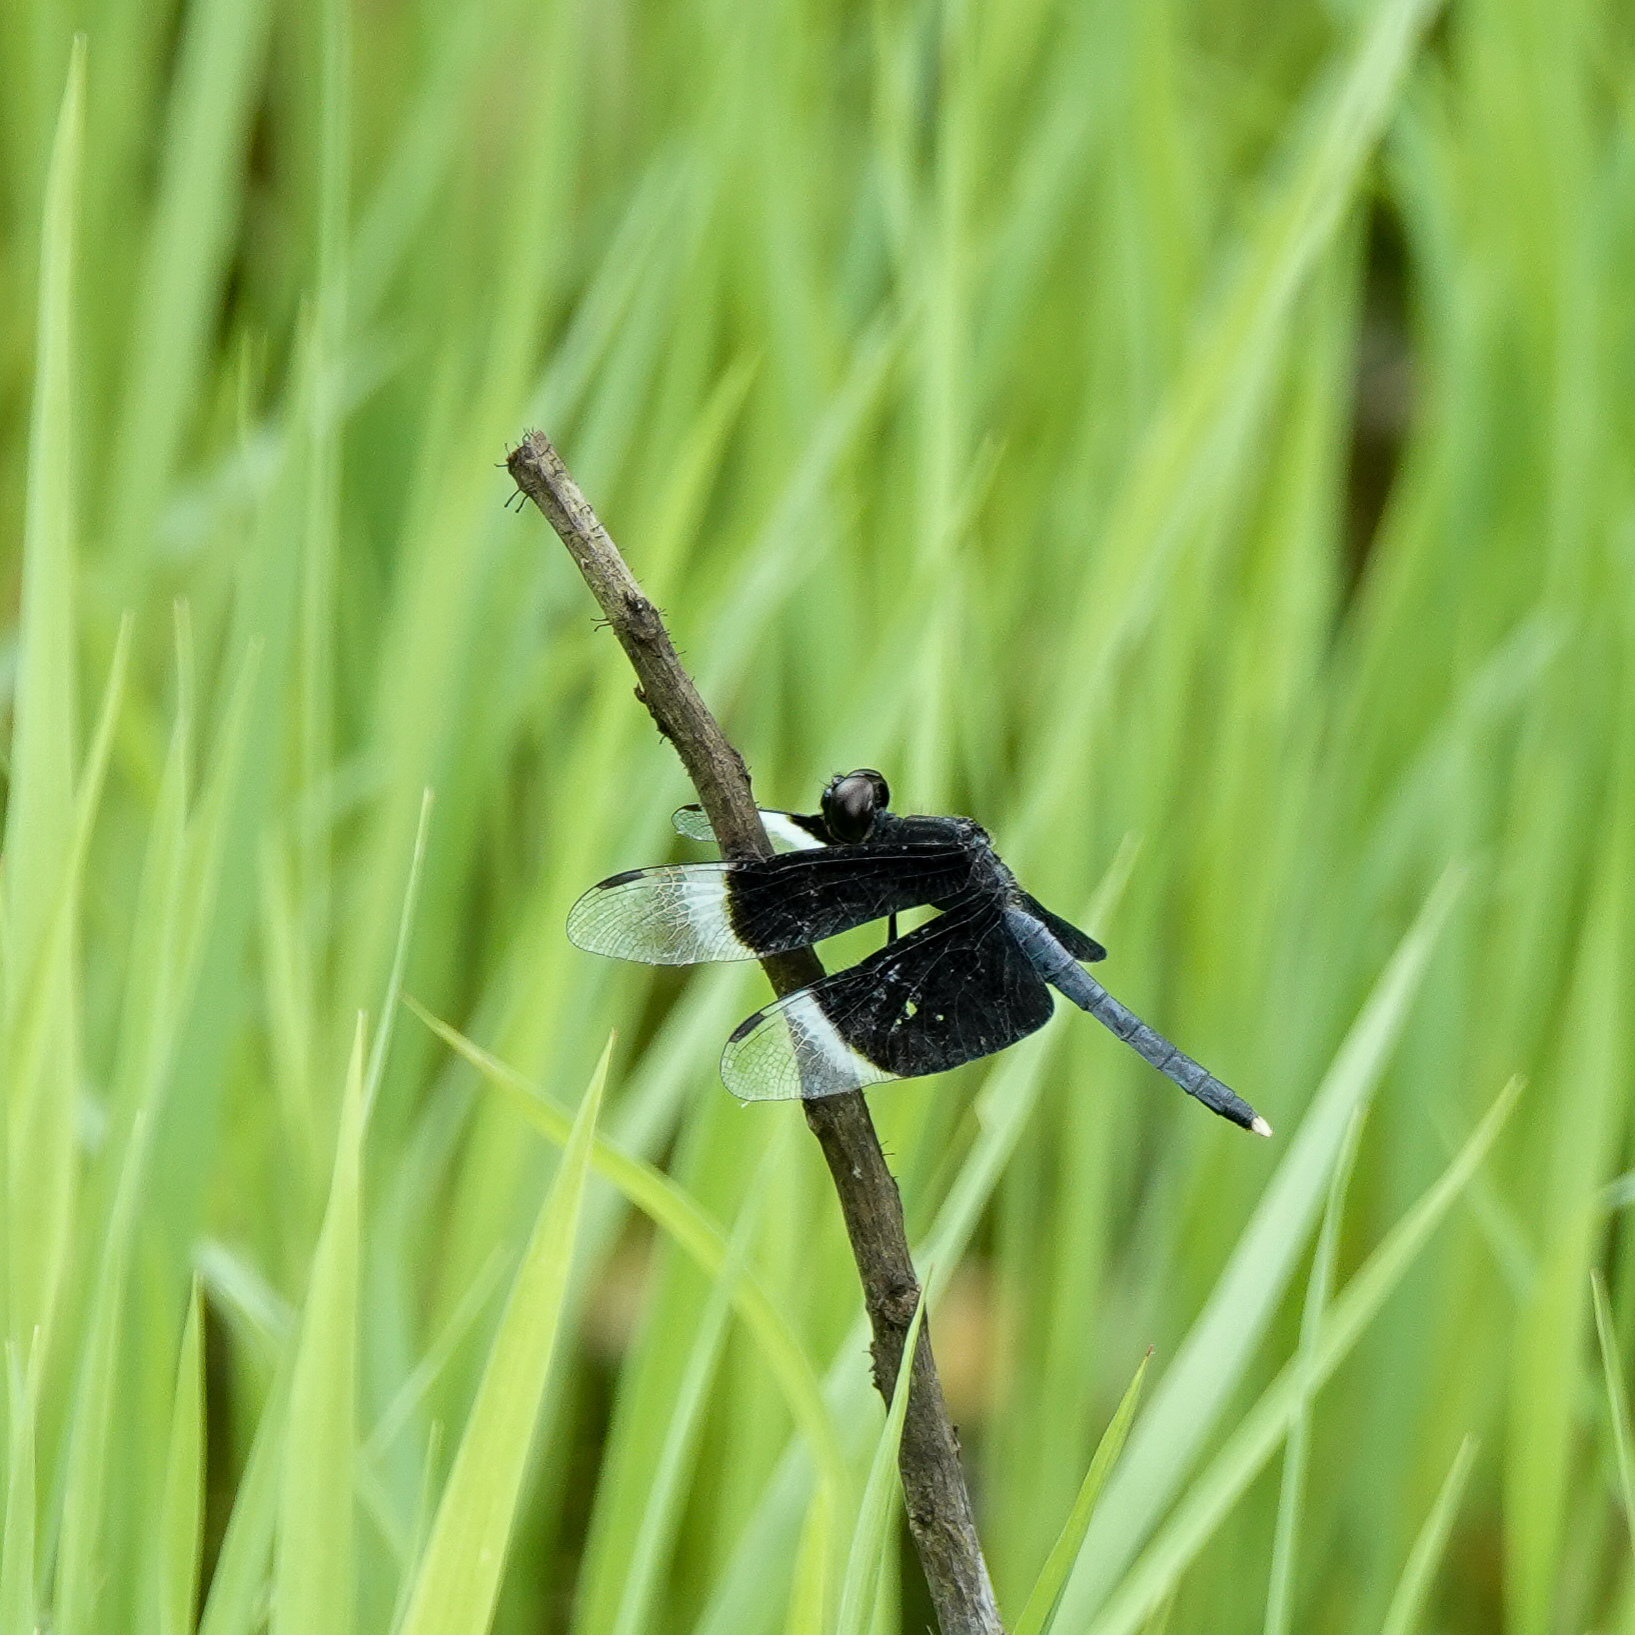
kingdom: Animalia
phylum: Arthropoda
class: Insecta
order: Odonata
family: Libellulidae
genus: Neurothemis
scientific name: Neurothemis tullia
